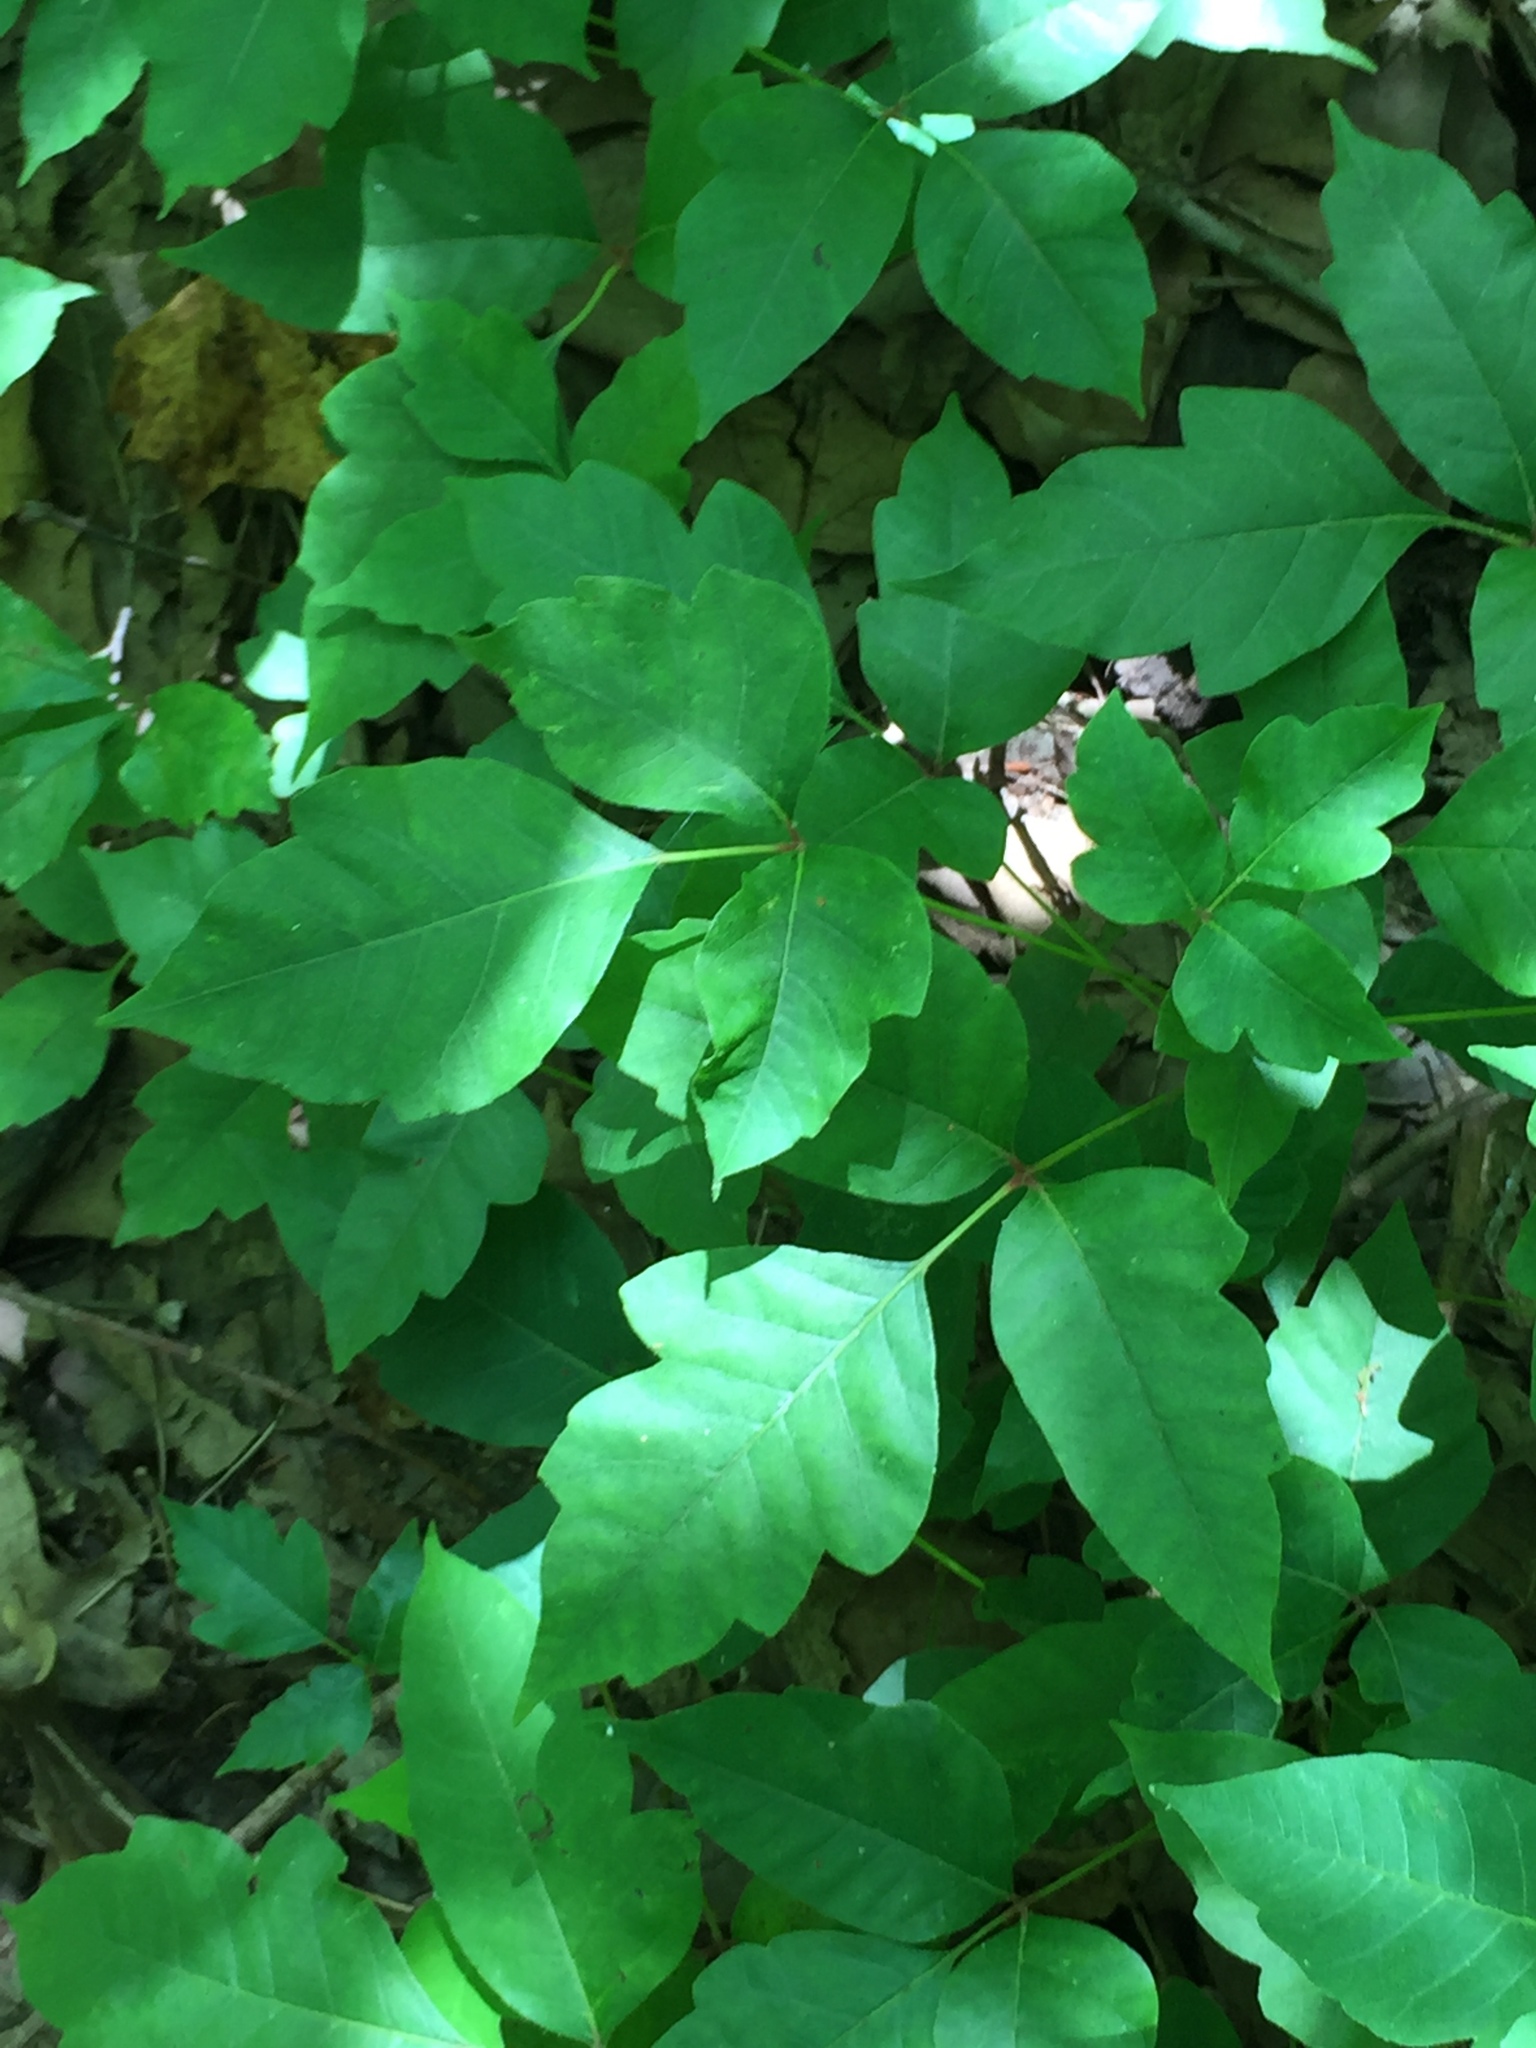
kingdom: Plantae
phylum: Tracheophyta
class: Magnoliopsida
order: Sapindales
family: Anacardiaceae
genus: Toxicodendron
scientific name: Toxicodendron radicans
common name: Poison ivy
